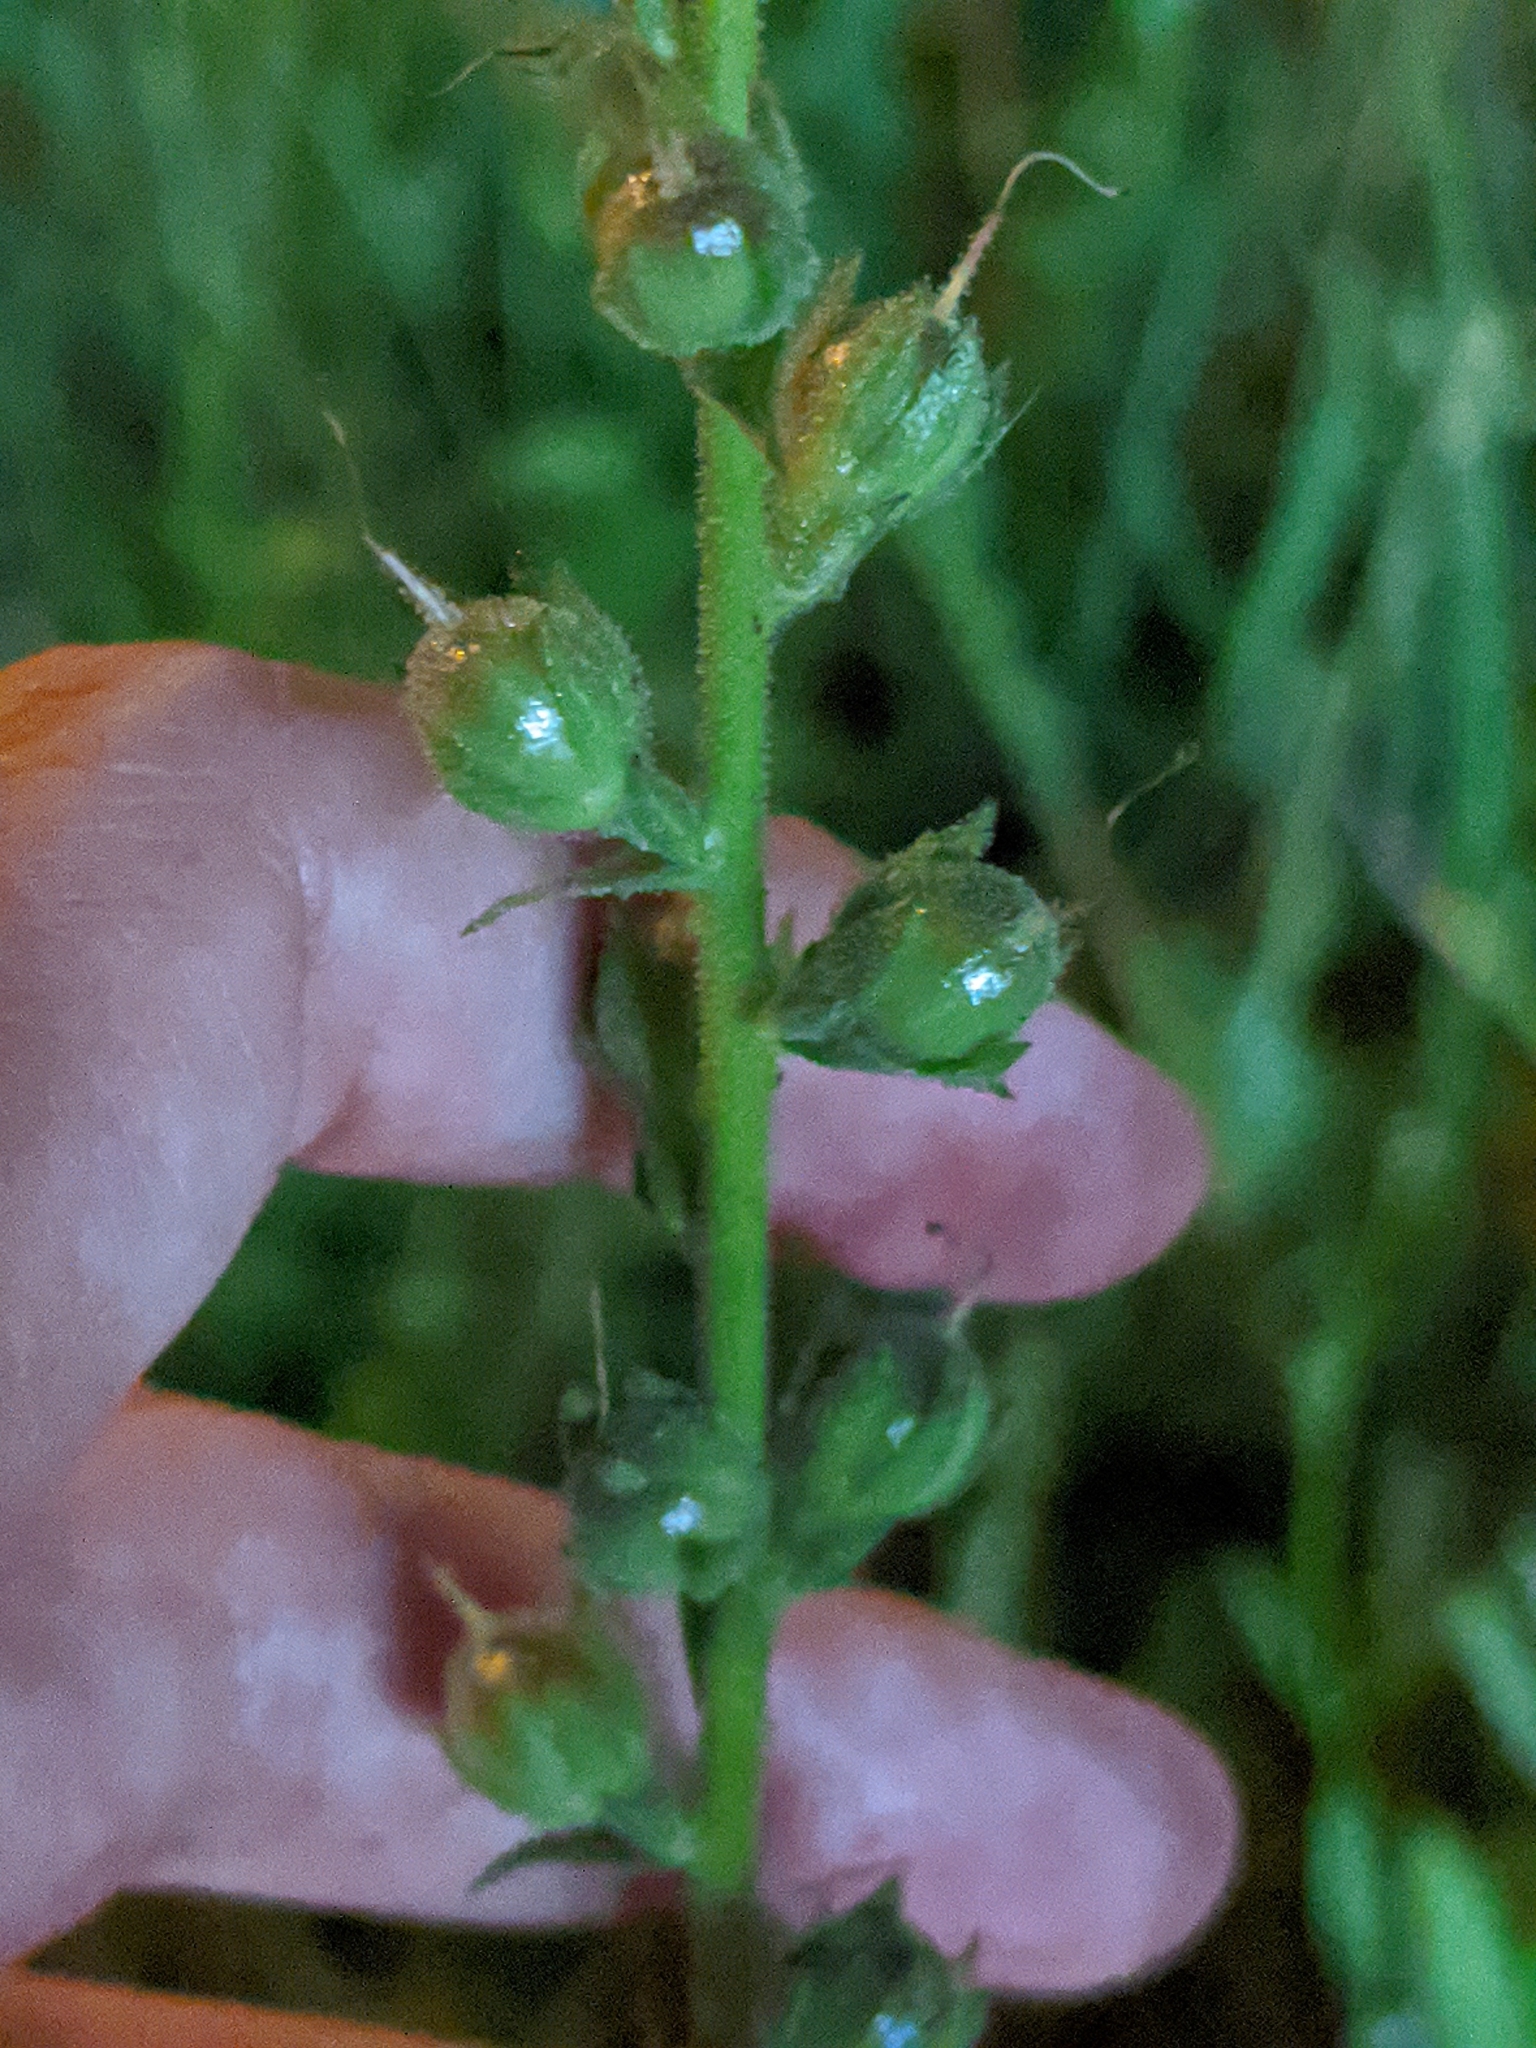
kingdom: Plantae
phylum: Tracheophyta
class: Magnoliopsida
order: Lamiales
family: Scrophulariaceae
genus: Verbascum
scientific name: Verbascum virgatum
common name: Twiggy mullein
